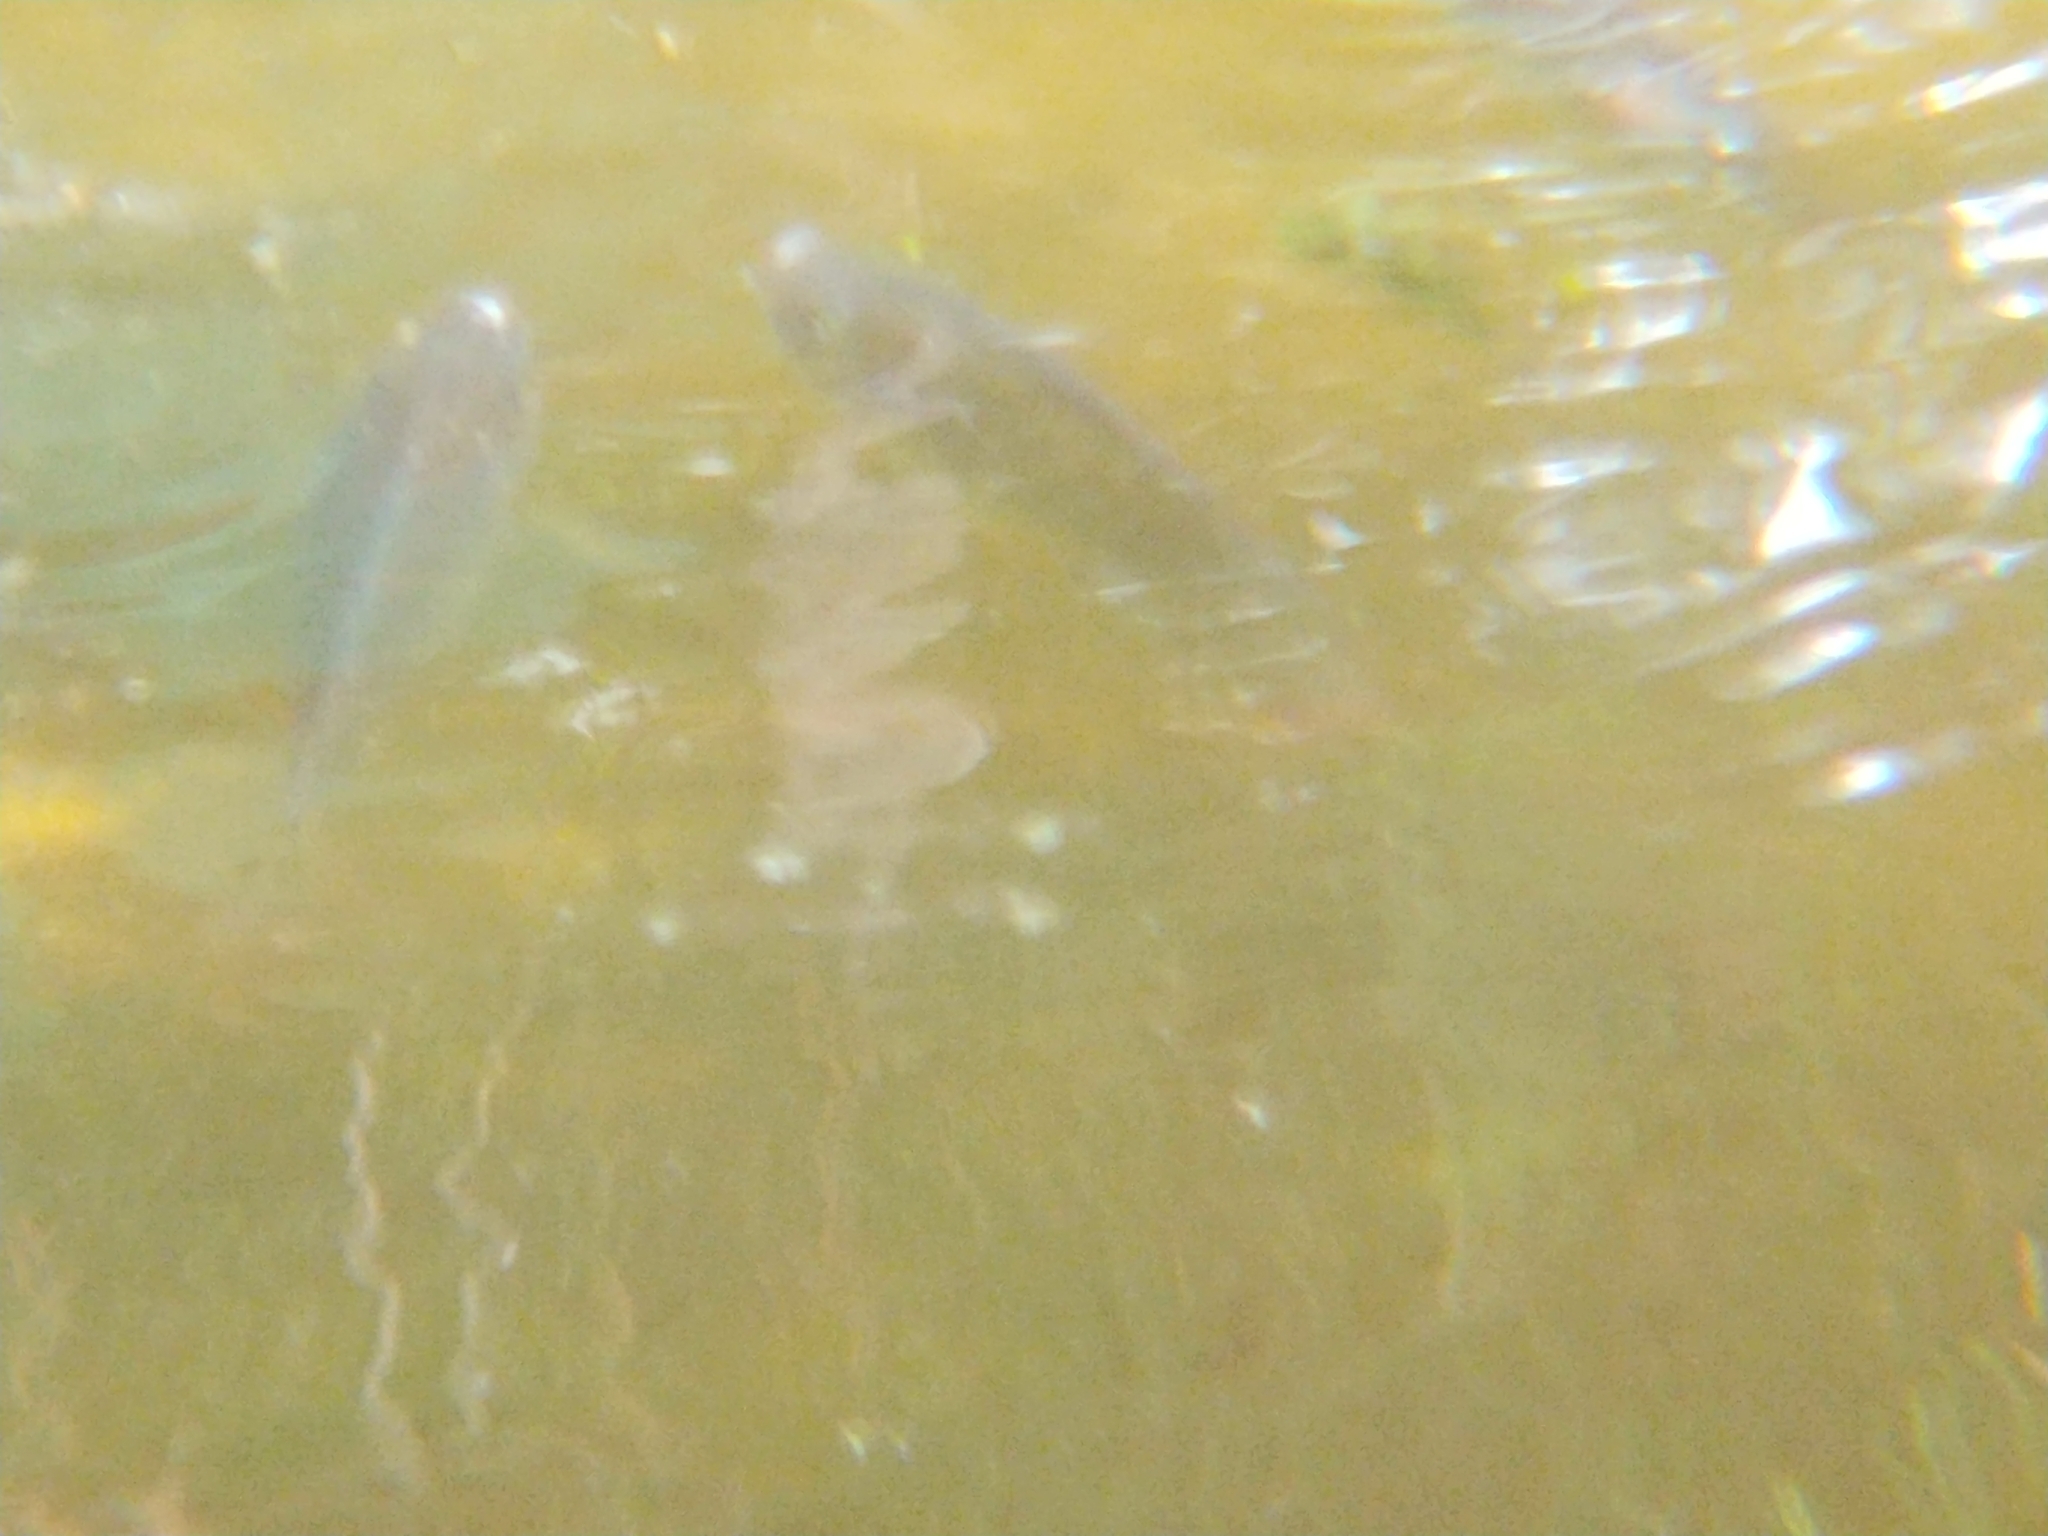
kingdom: Animalia
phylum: Chordata
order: Perciformes
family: Cichlidae
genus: Oreochromis
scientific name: Oreochromis
